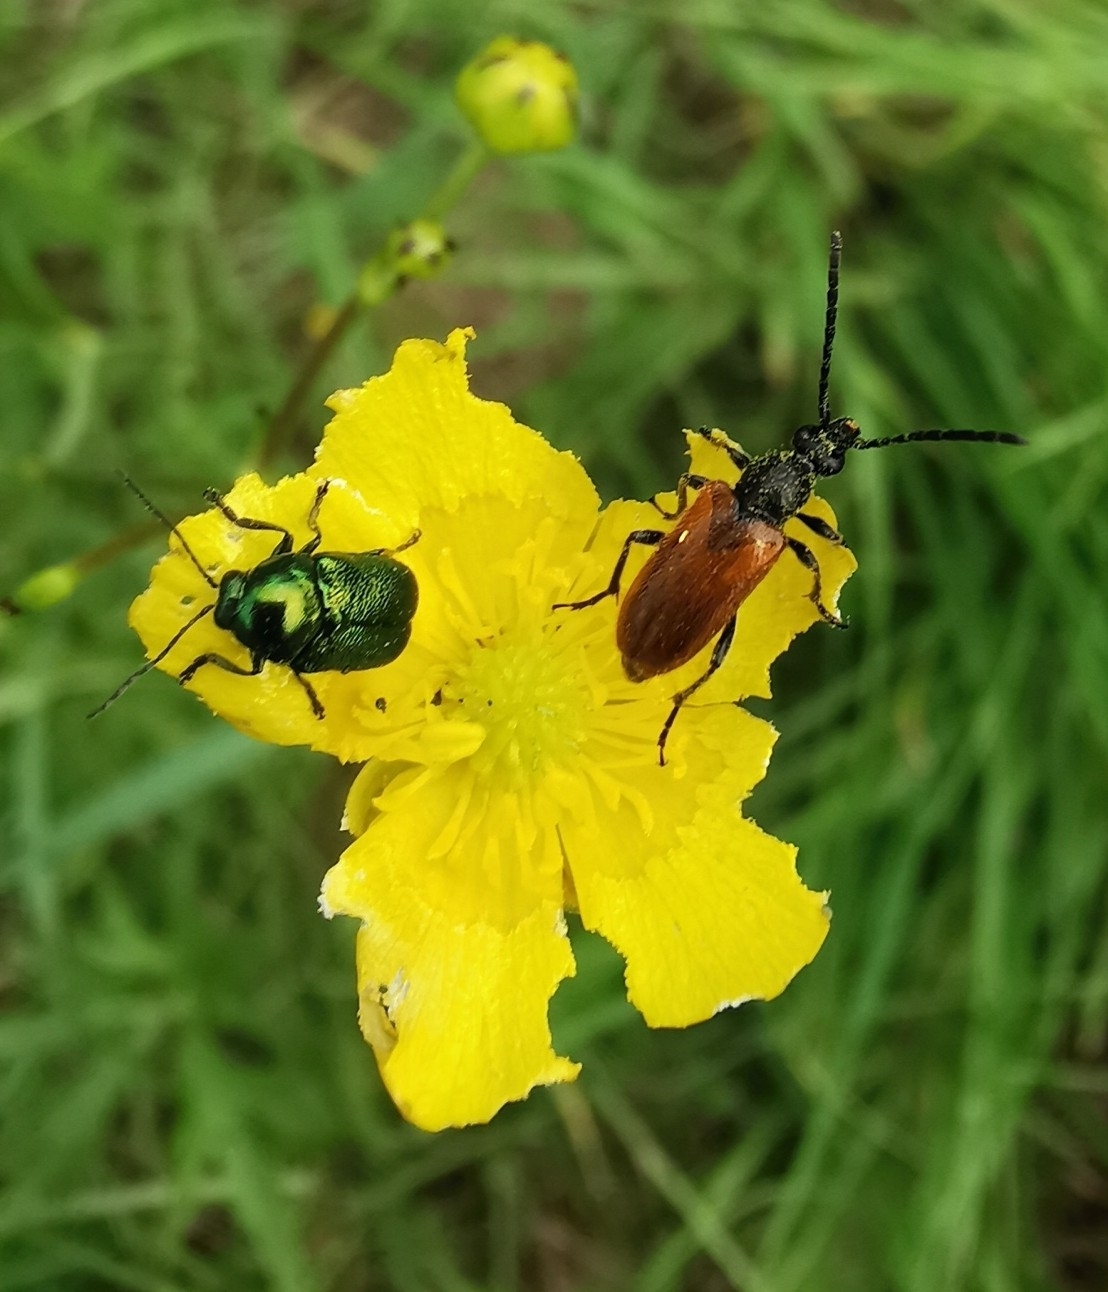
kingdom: Animalia
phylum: Arthropoda
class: Insecta
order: Coleoptera
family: Cerambycidae
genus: Pseudovadonia
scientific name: Pseudovadonia livida
